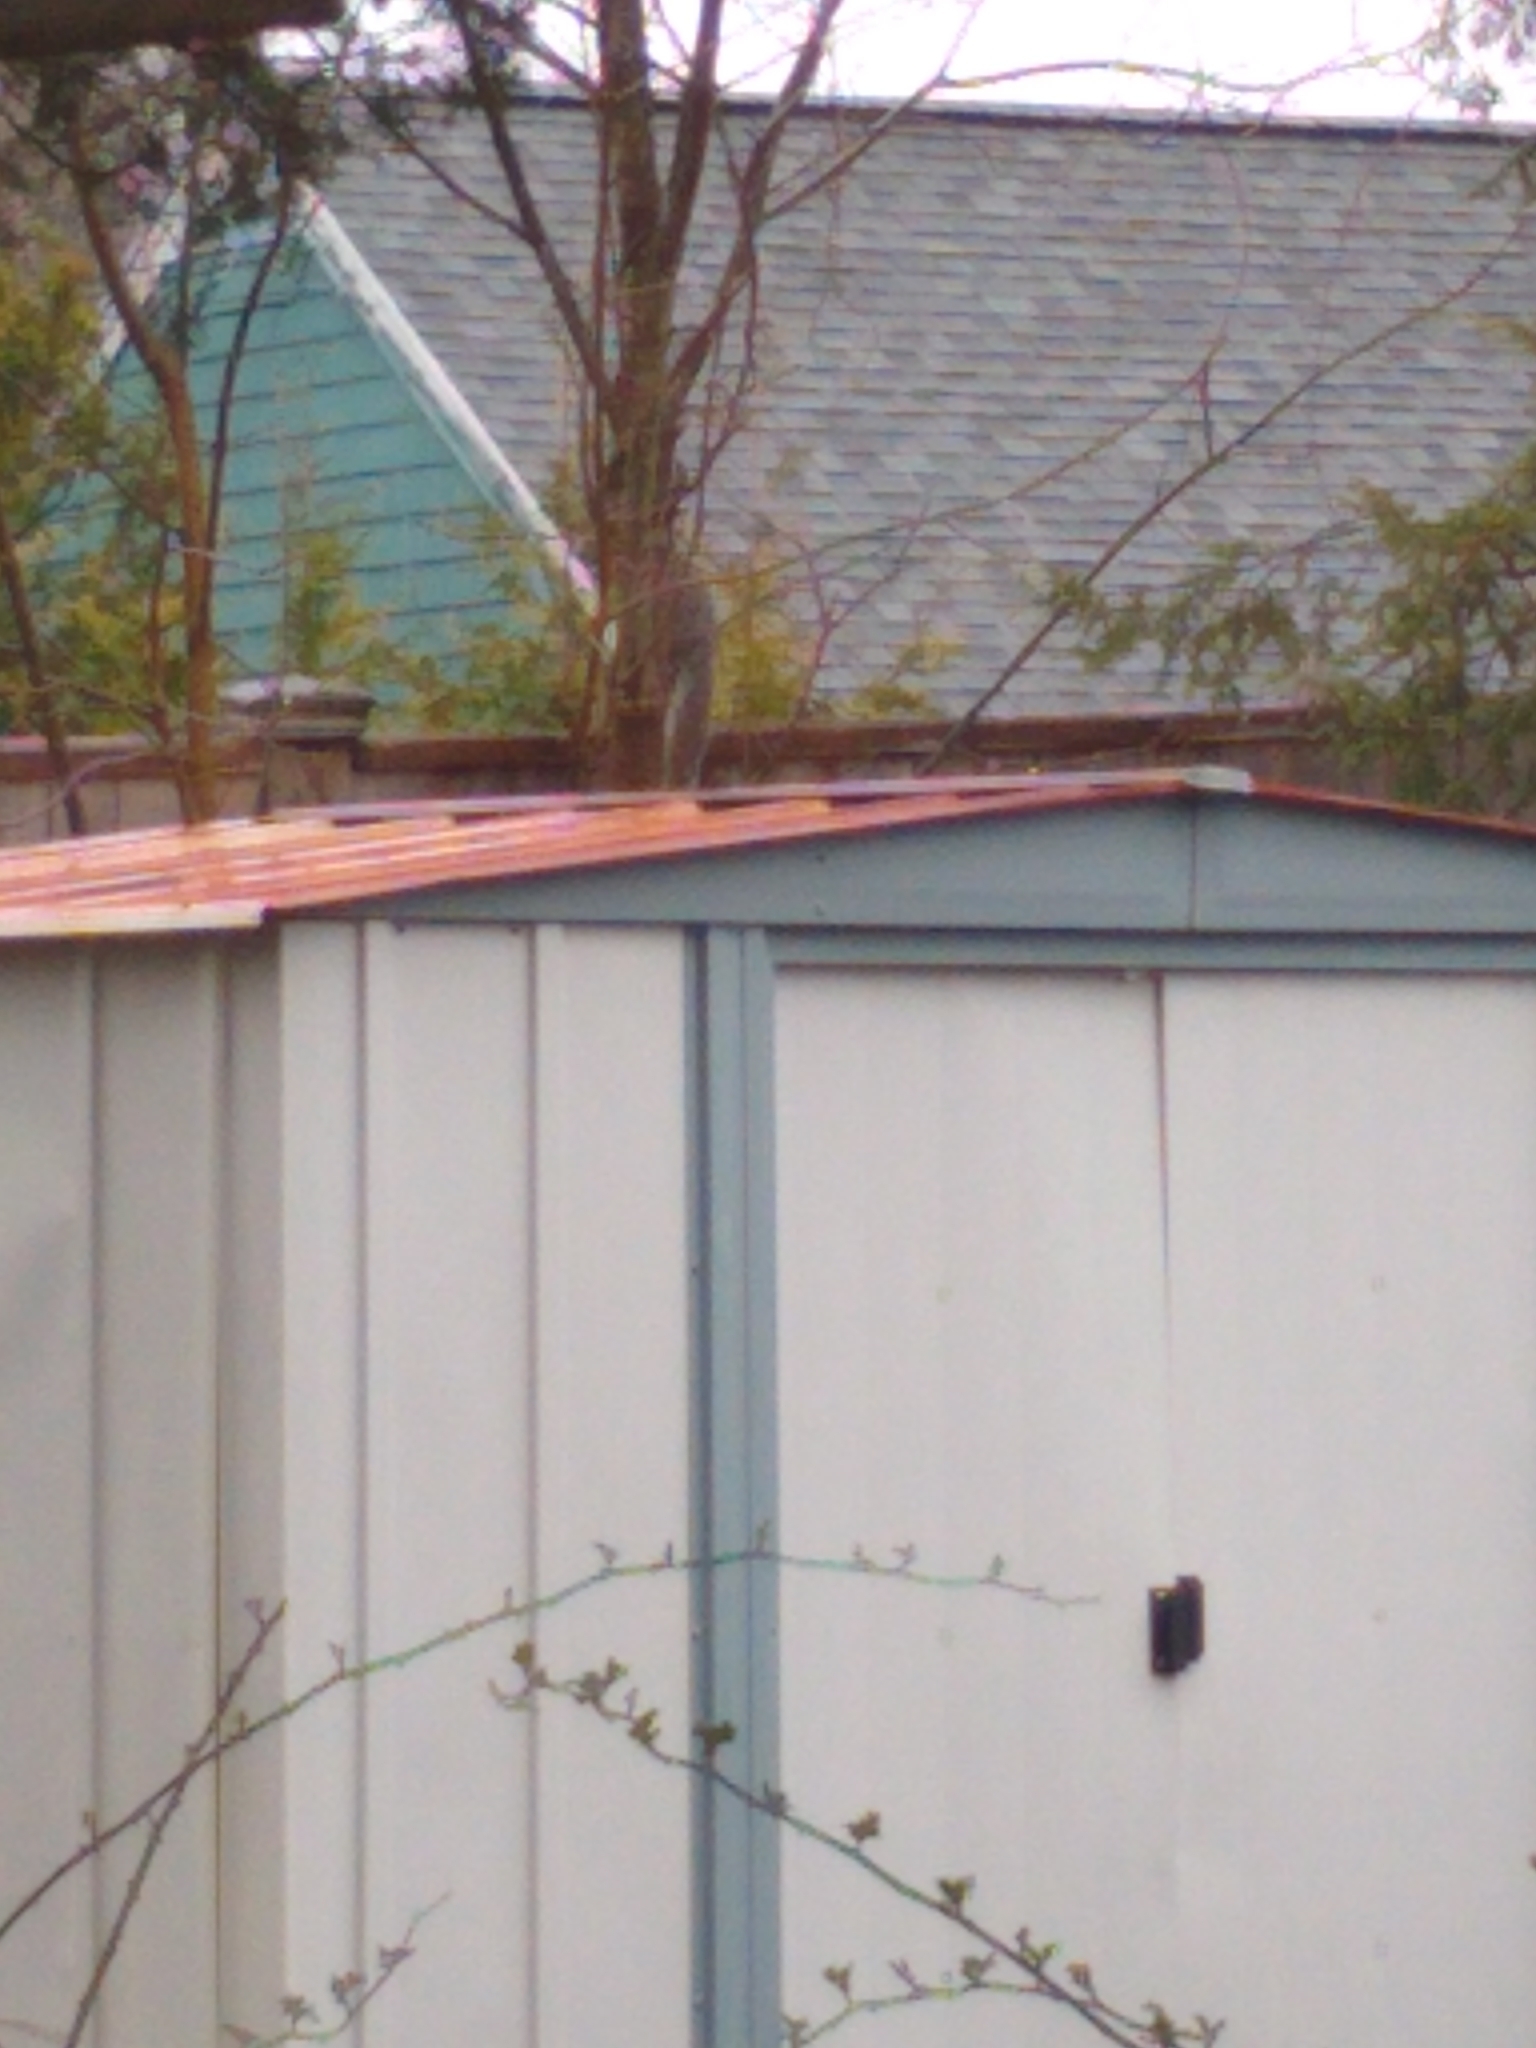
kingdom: Animalia
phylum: Chordata
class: Mammalia
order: Rodentia
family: Sciuridae
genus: Sciurus
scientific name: Sciurus carolinensis
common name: Eastern gray squirrel
